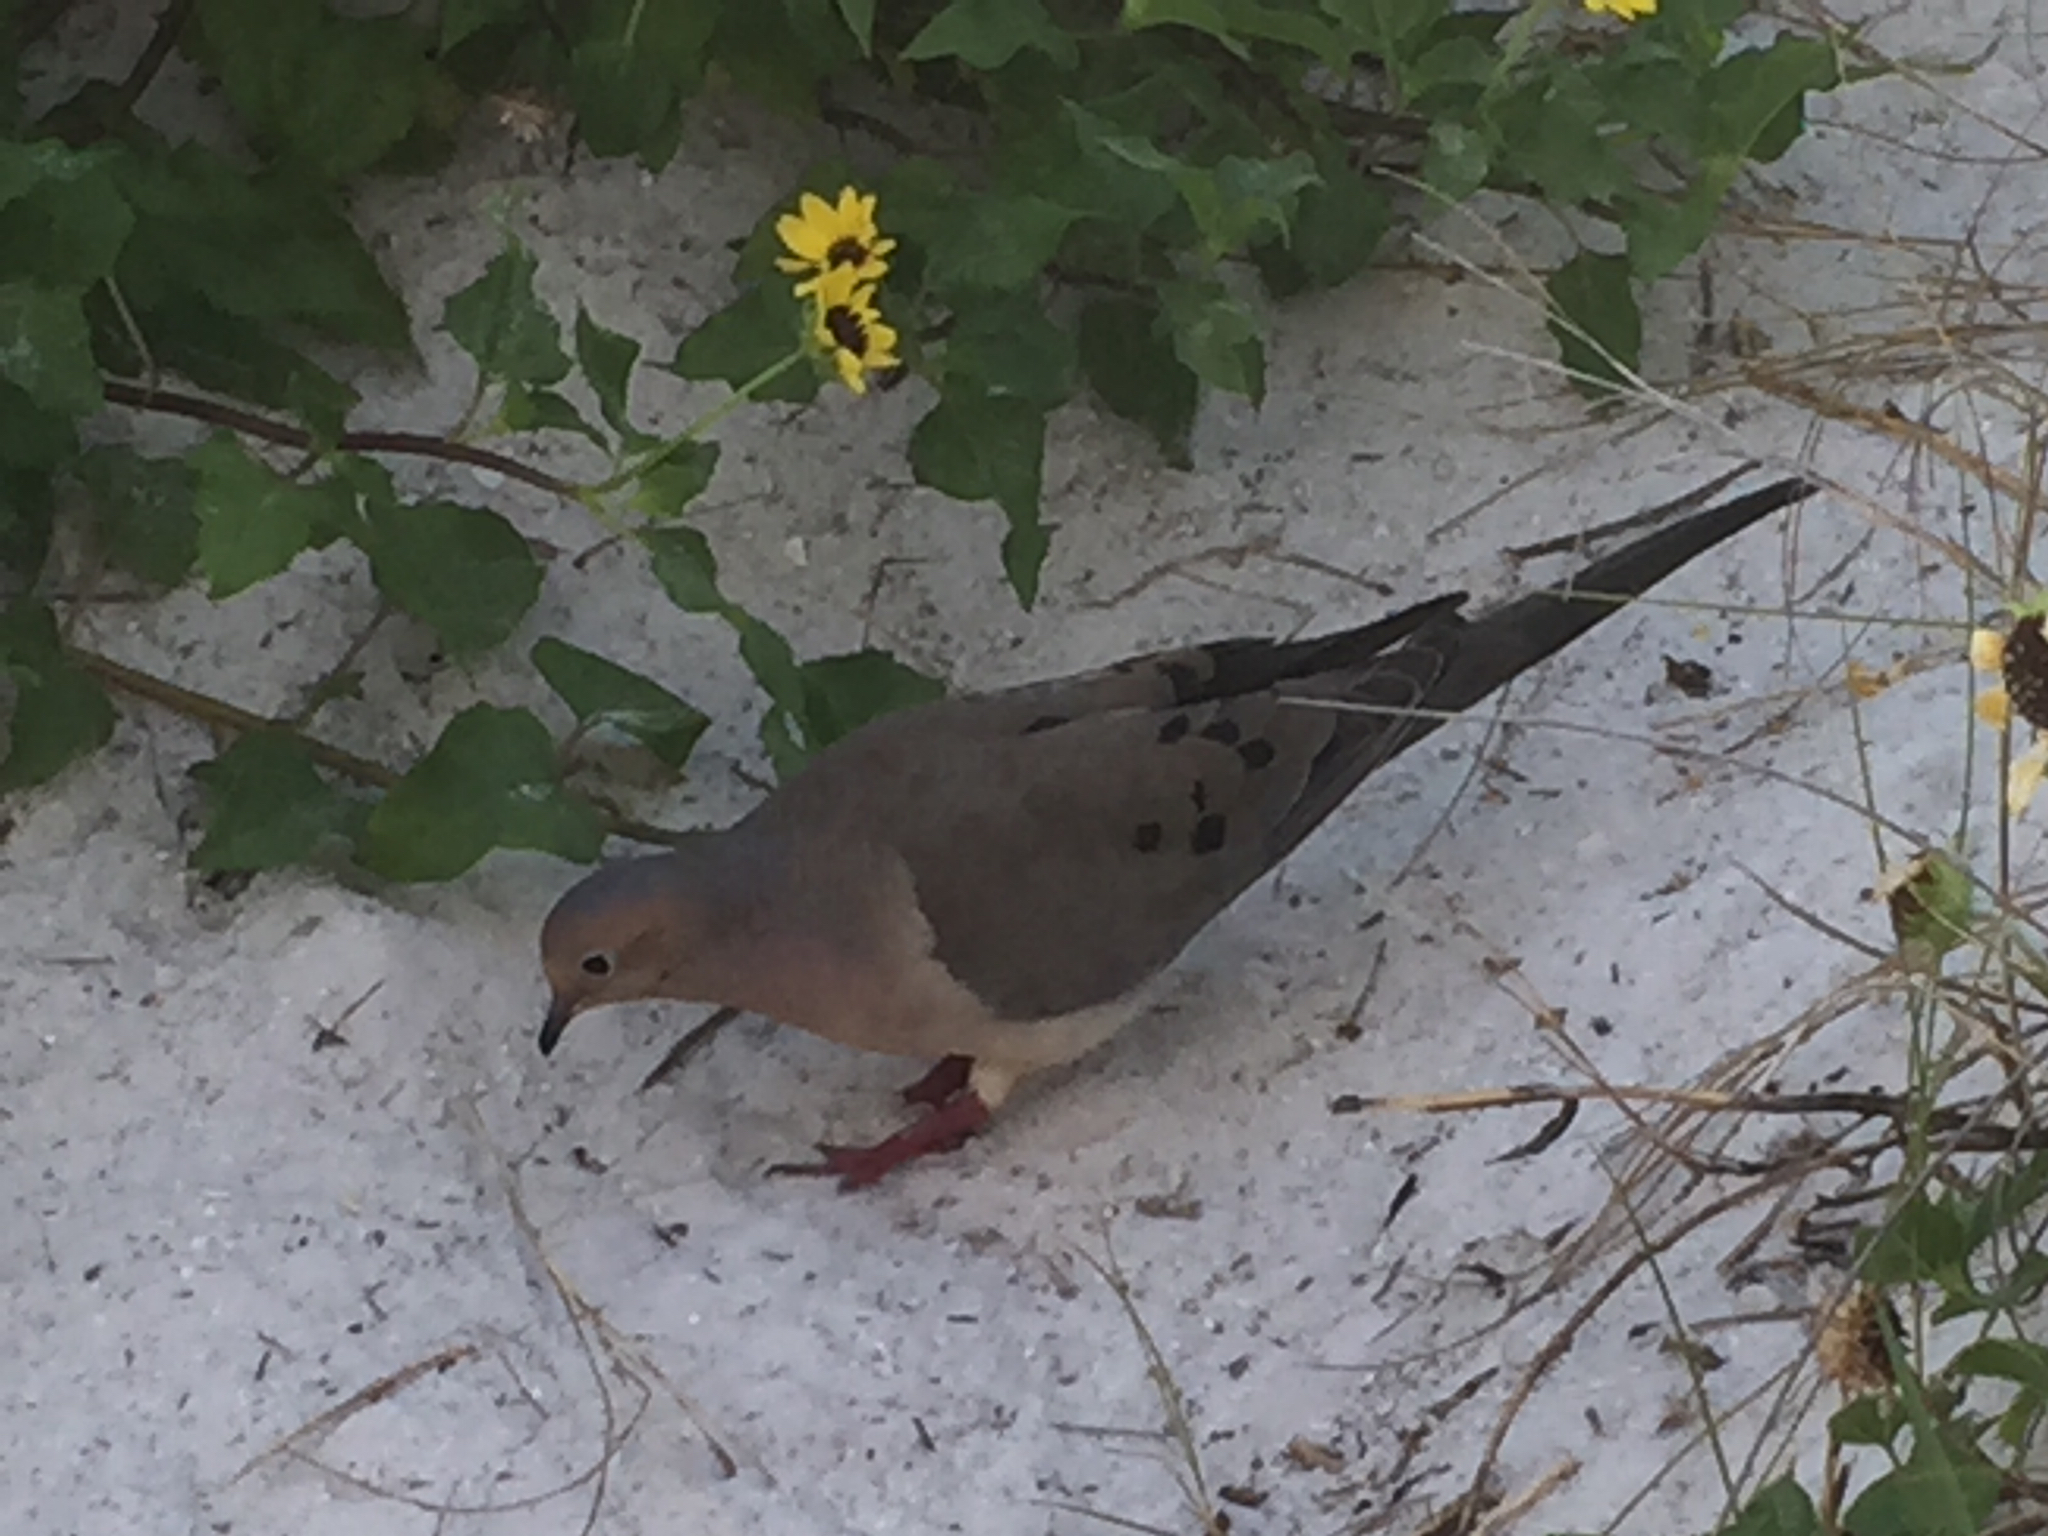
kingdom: Animalia
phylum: Chordata
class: Aves
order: Columbiformes
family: Columbidae
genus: Zenaida
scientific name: Zenaida macroura
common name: Mourning dove
